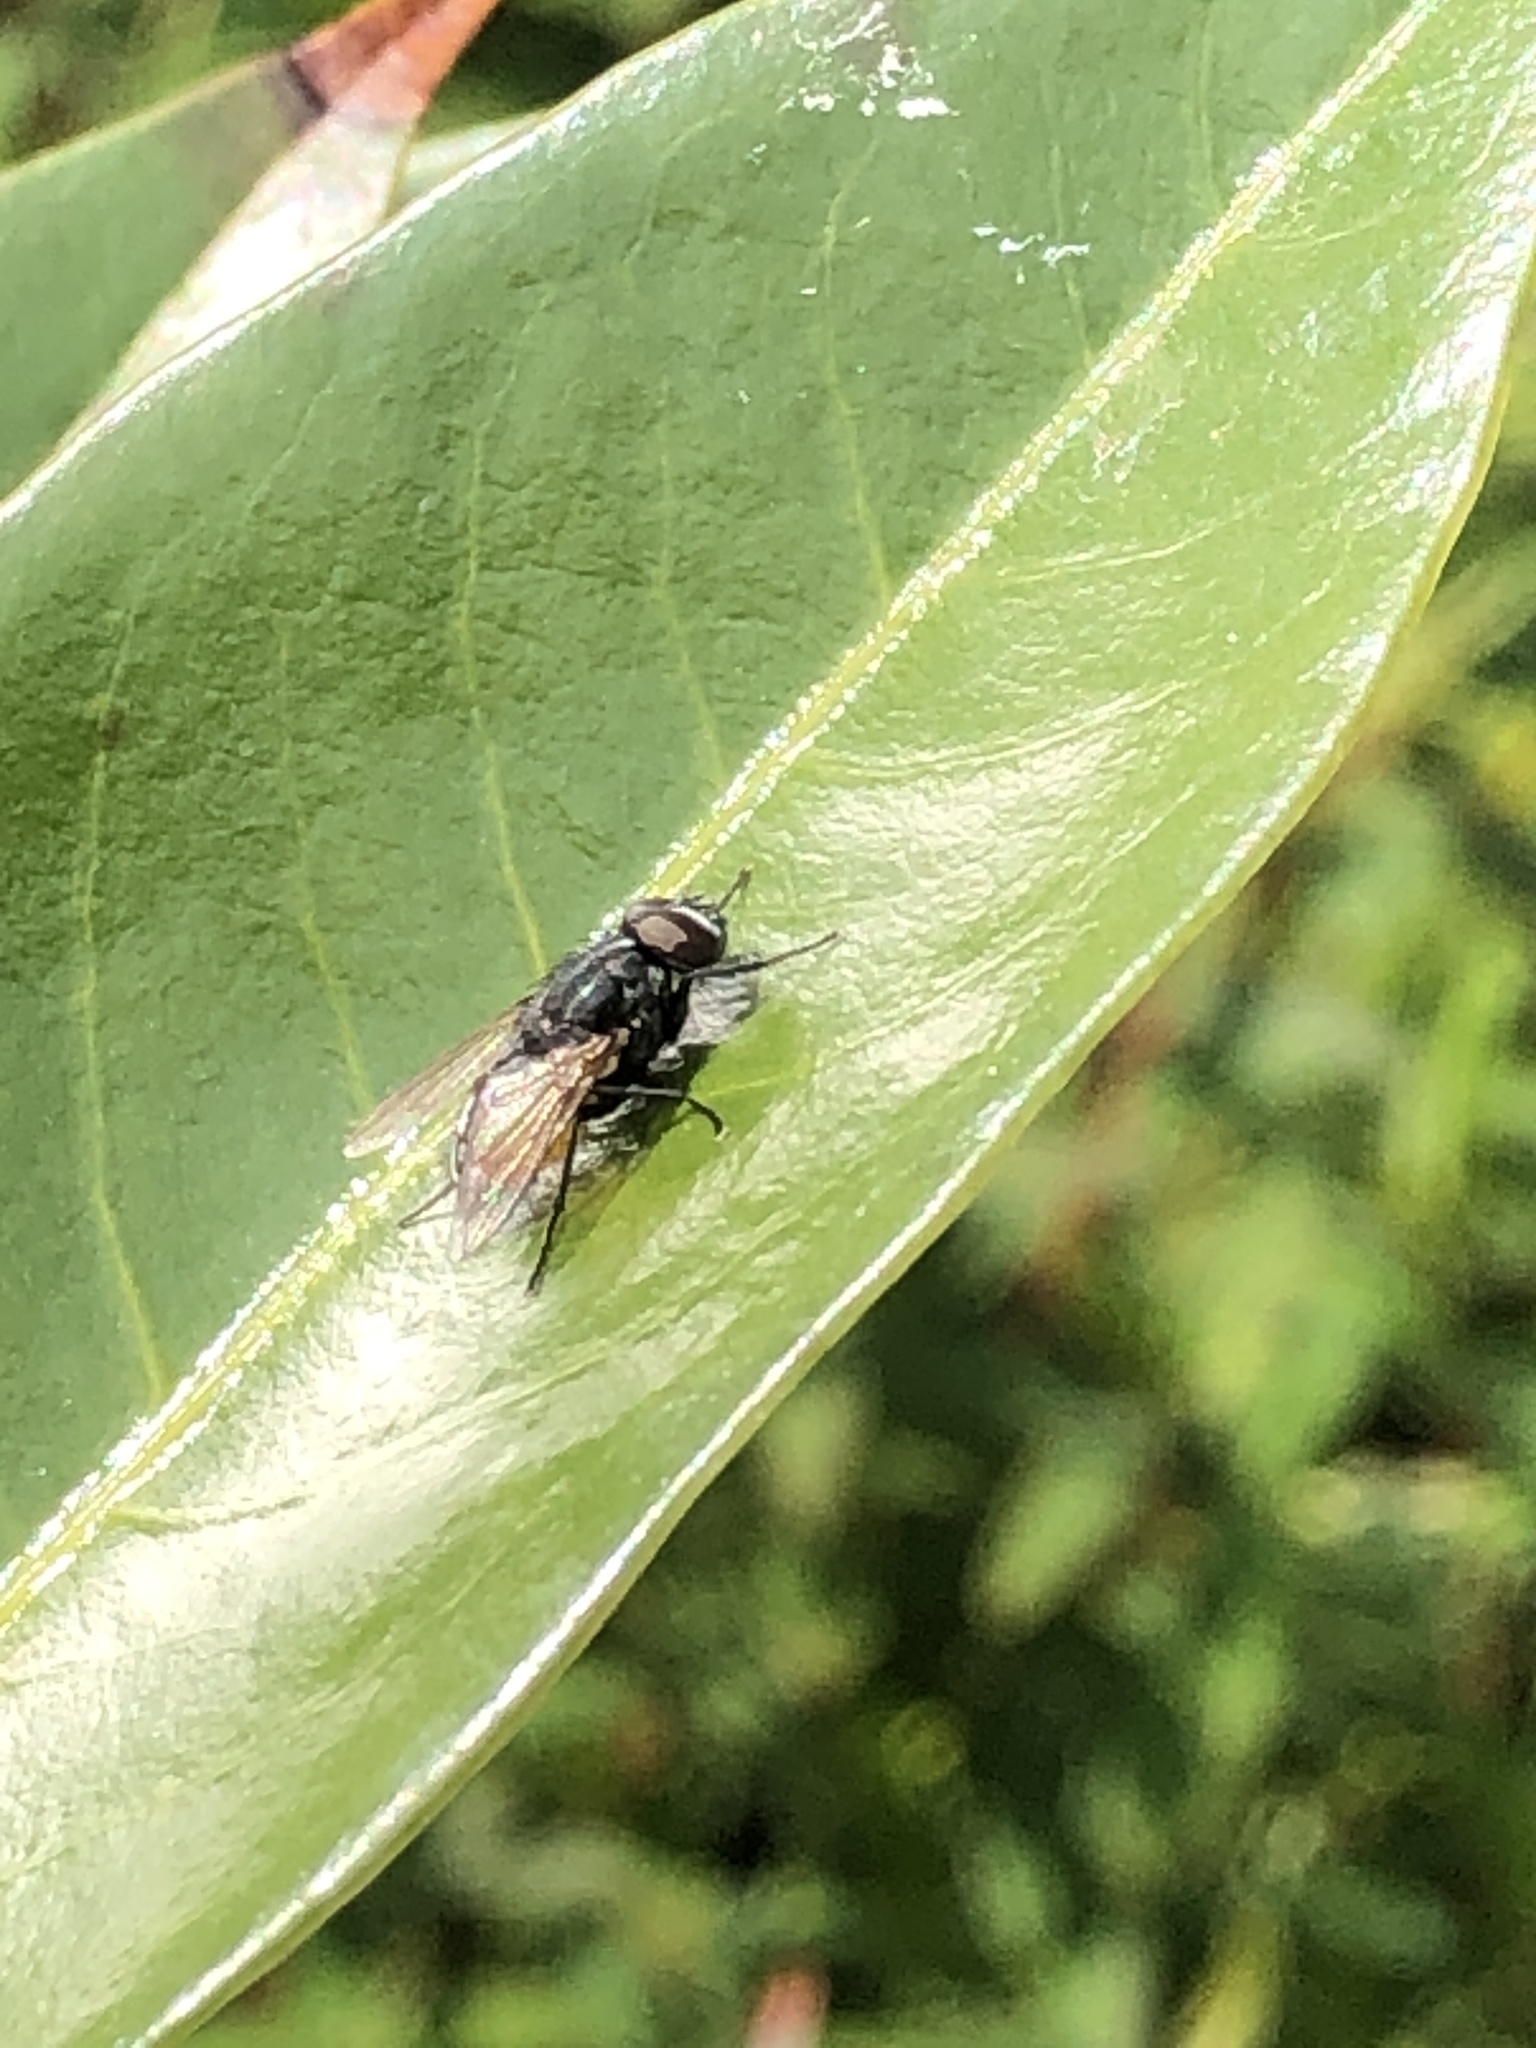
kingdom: Animalia
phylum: Arthropoda
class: Insecta
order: Diptera
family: Muscidae
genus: Musca
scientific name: Musca autumnalis
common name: Face fly
